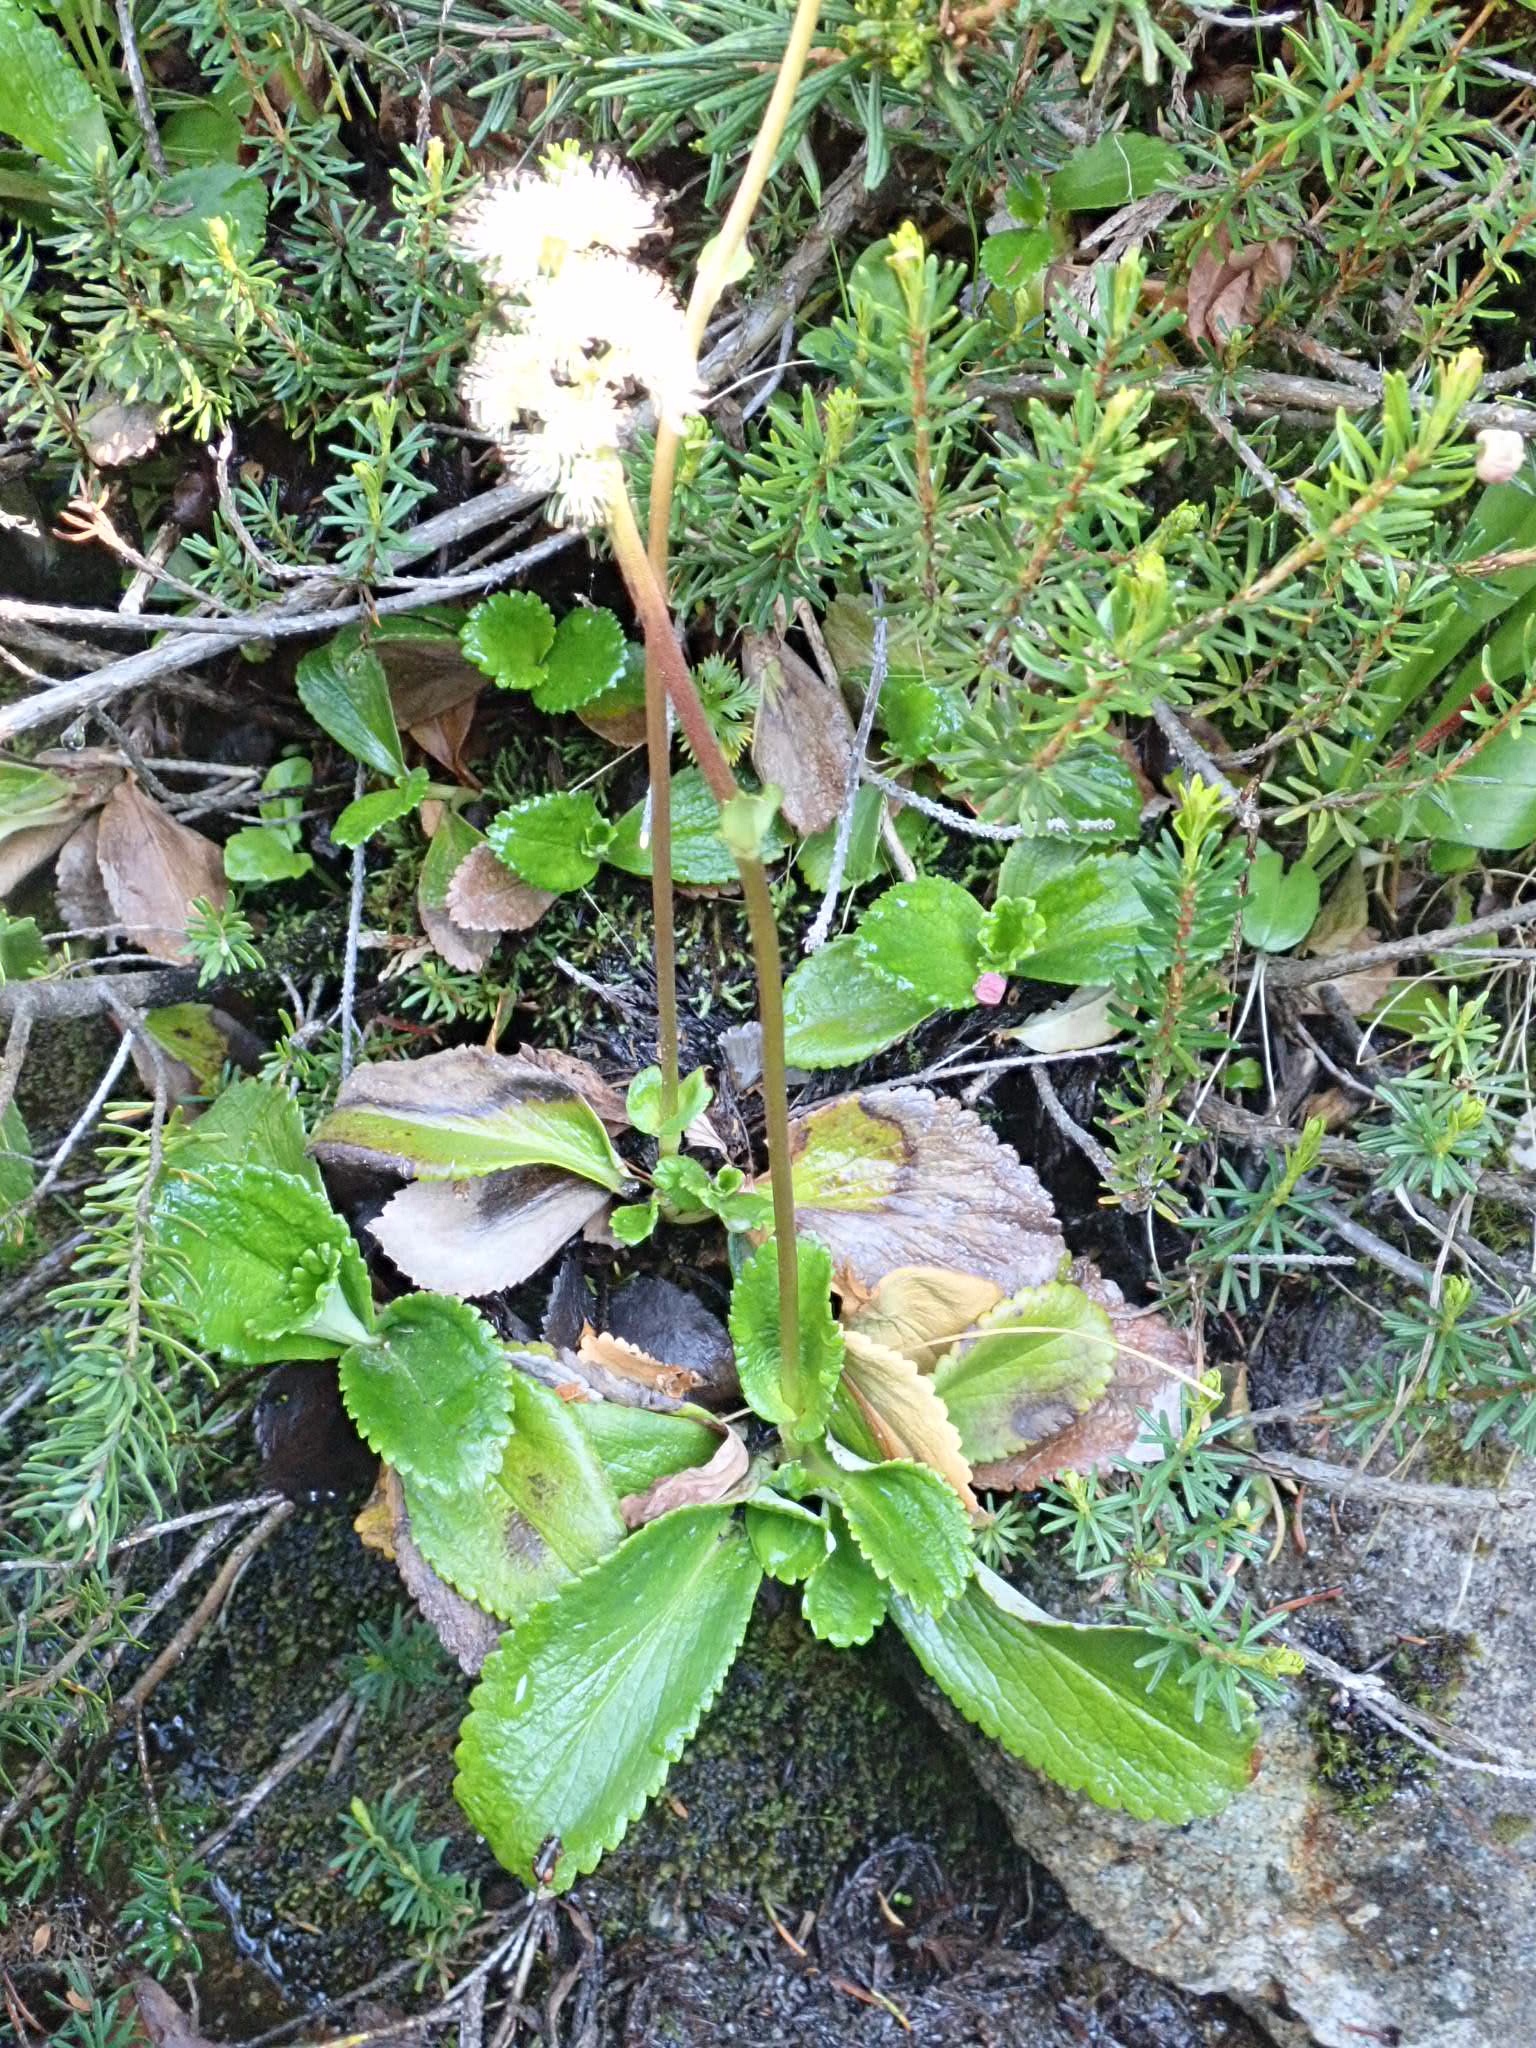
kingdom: Plantae
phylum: Tracheophyta
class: Magnoliopsida
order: Saxifragales
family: Saxifragaceae
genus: Micranthes
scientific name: Micranthes integrifolia
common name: Wholeleaf saxifrage
